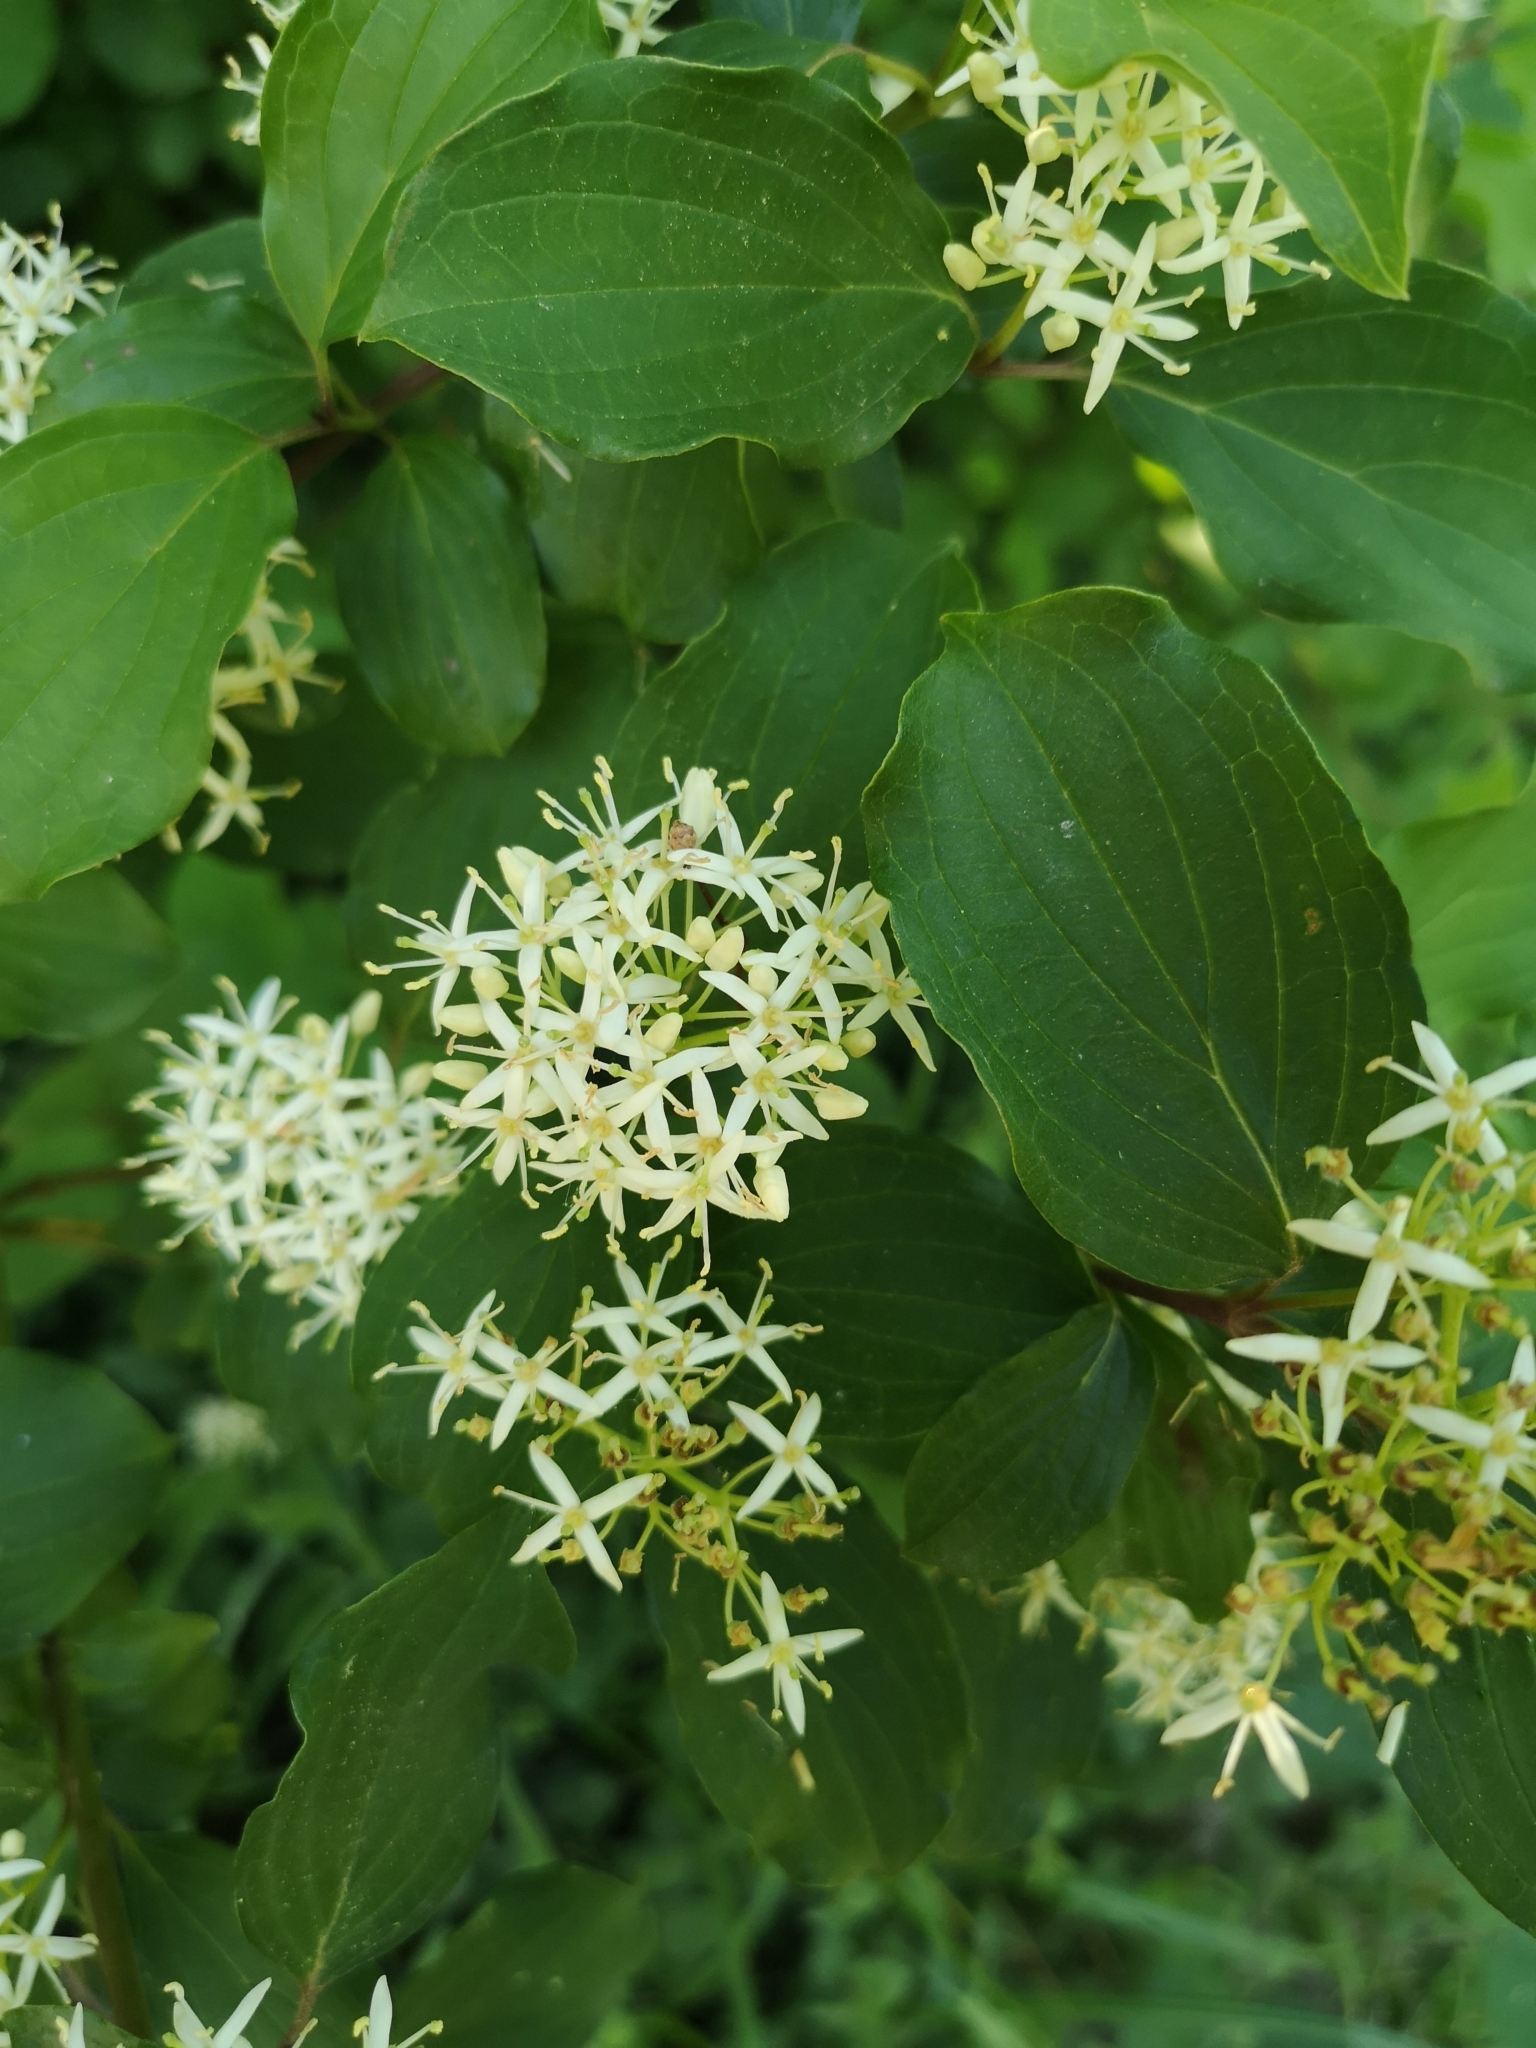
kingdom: Plantae
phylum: Tracheophyta
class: Magnoliopsida
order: Cornales
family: Cornaceae
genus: Cornus
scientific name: Cornus sanguinea
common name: Dogwood
